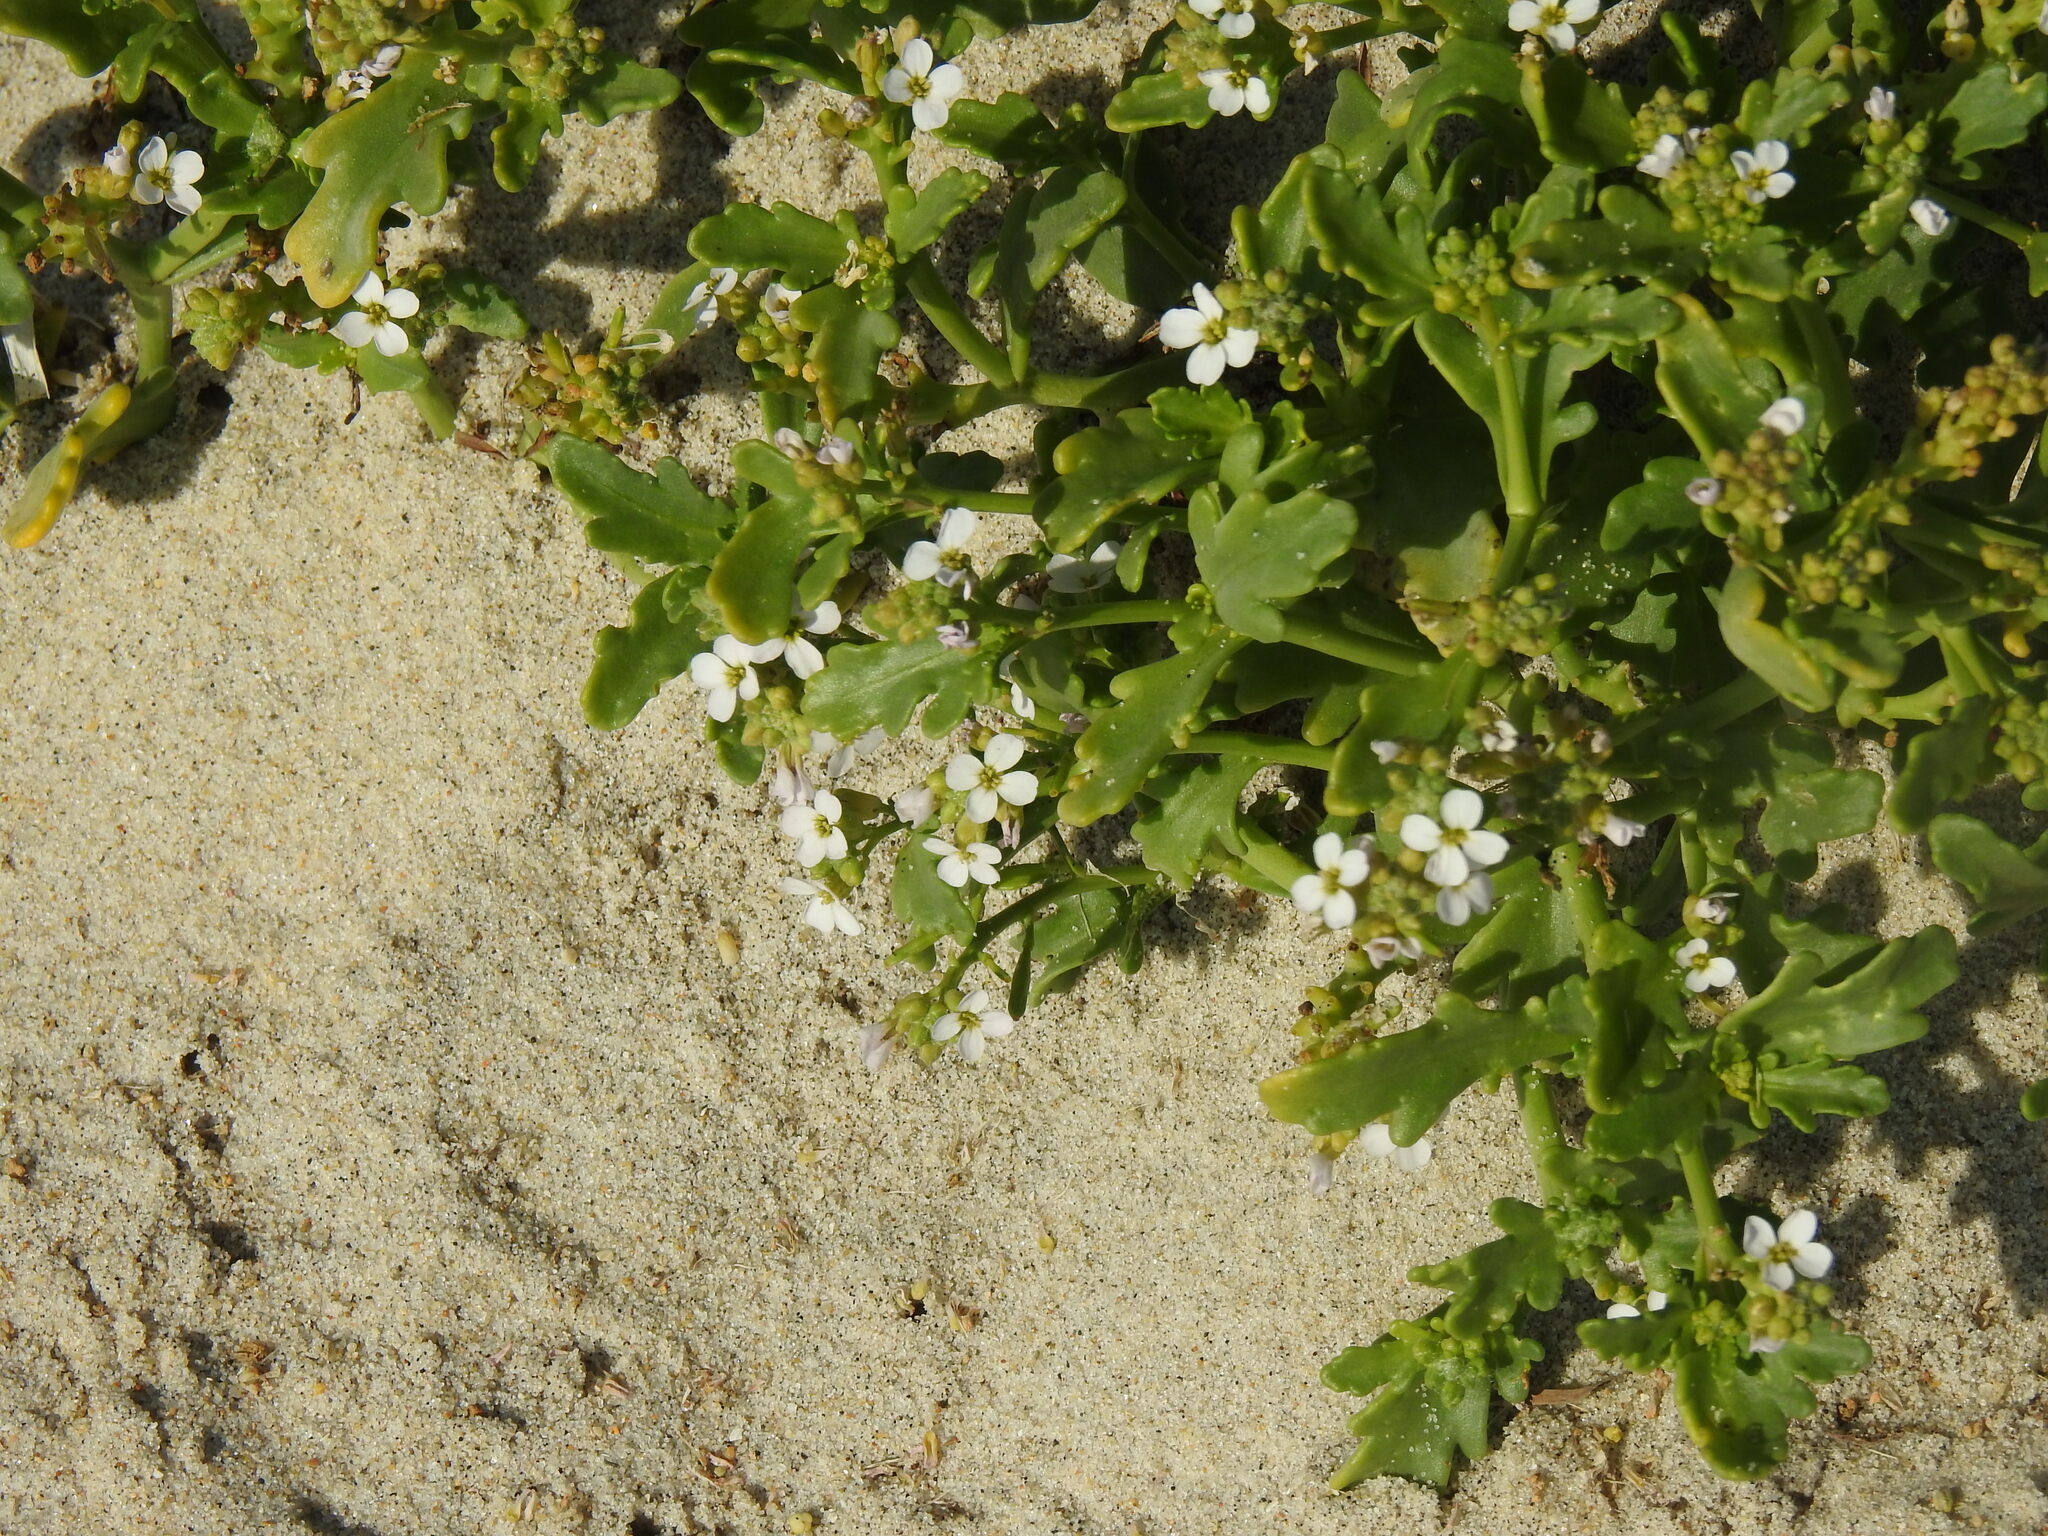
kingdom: Plantae
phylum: Tracheophyta
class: Magnoliopsida
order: Brassicales
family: Brassicaceae
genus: Cakile
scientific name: Cakile maritima
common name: Sea rocket
